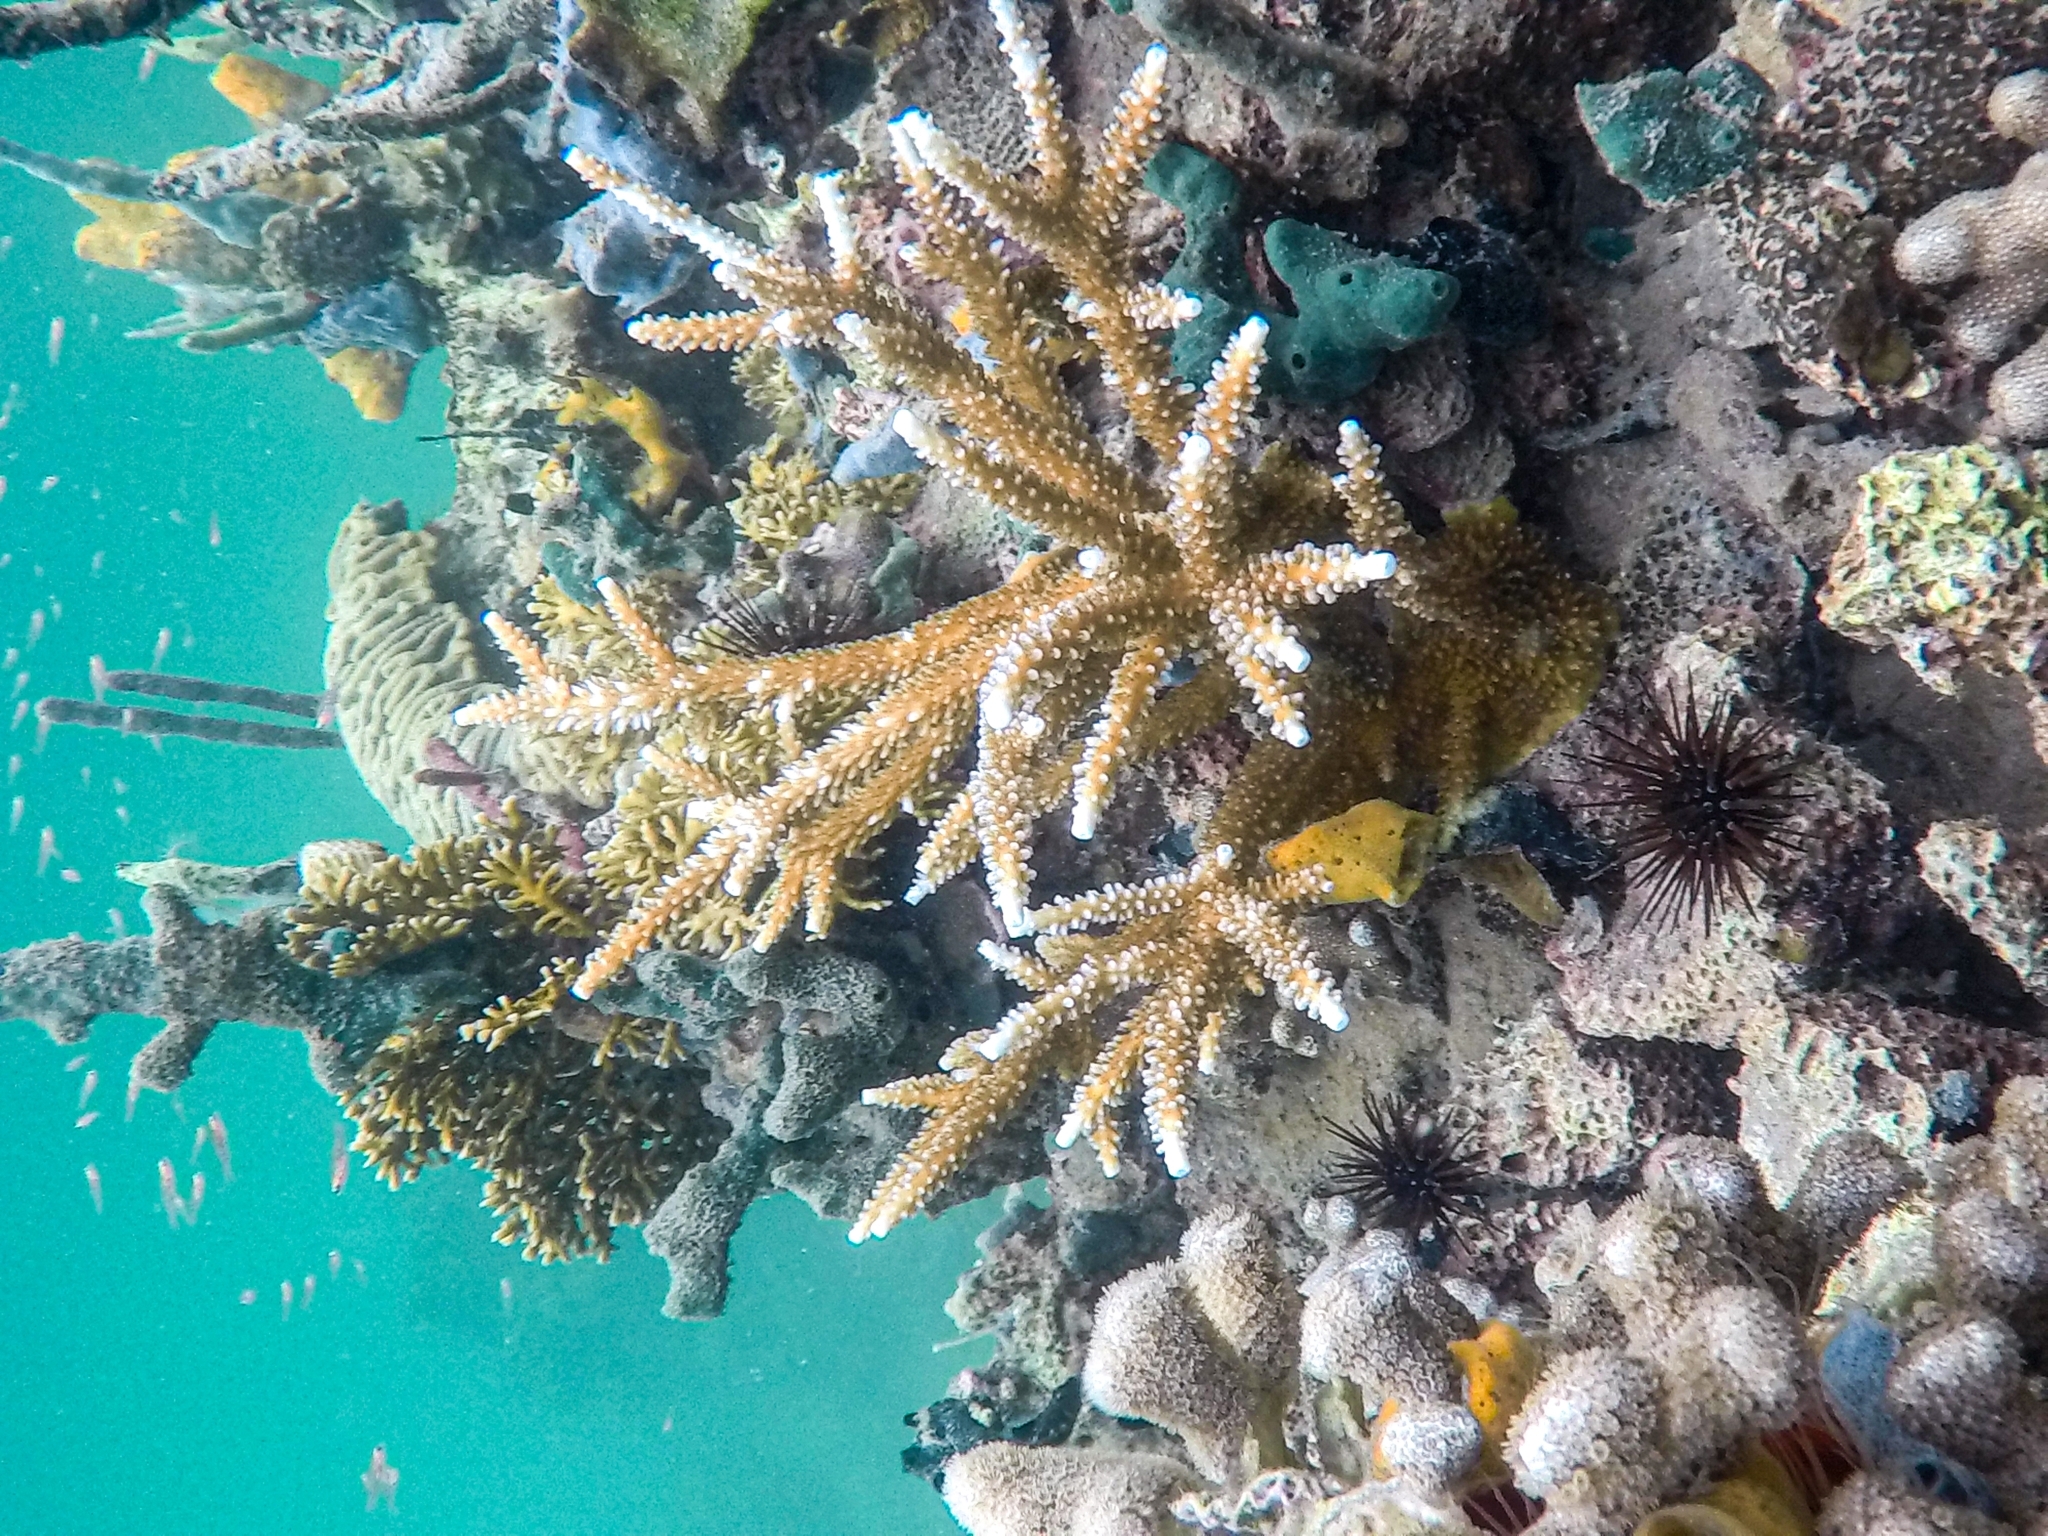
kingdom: Animalia
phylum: Cnidaria
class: Anthozoa
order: Scleractinia
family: Acroporidae
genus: Acropora
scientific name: Acropora cervicornis
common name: Staghorn coral
